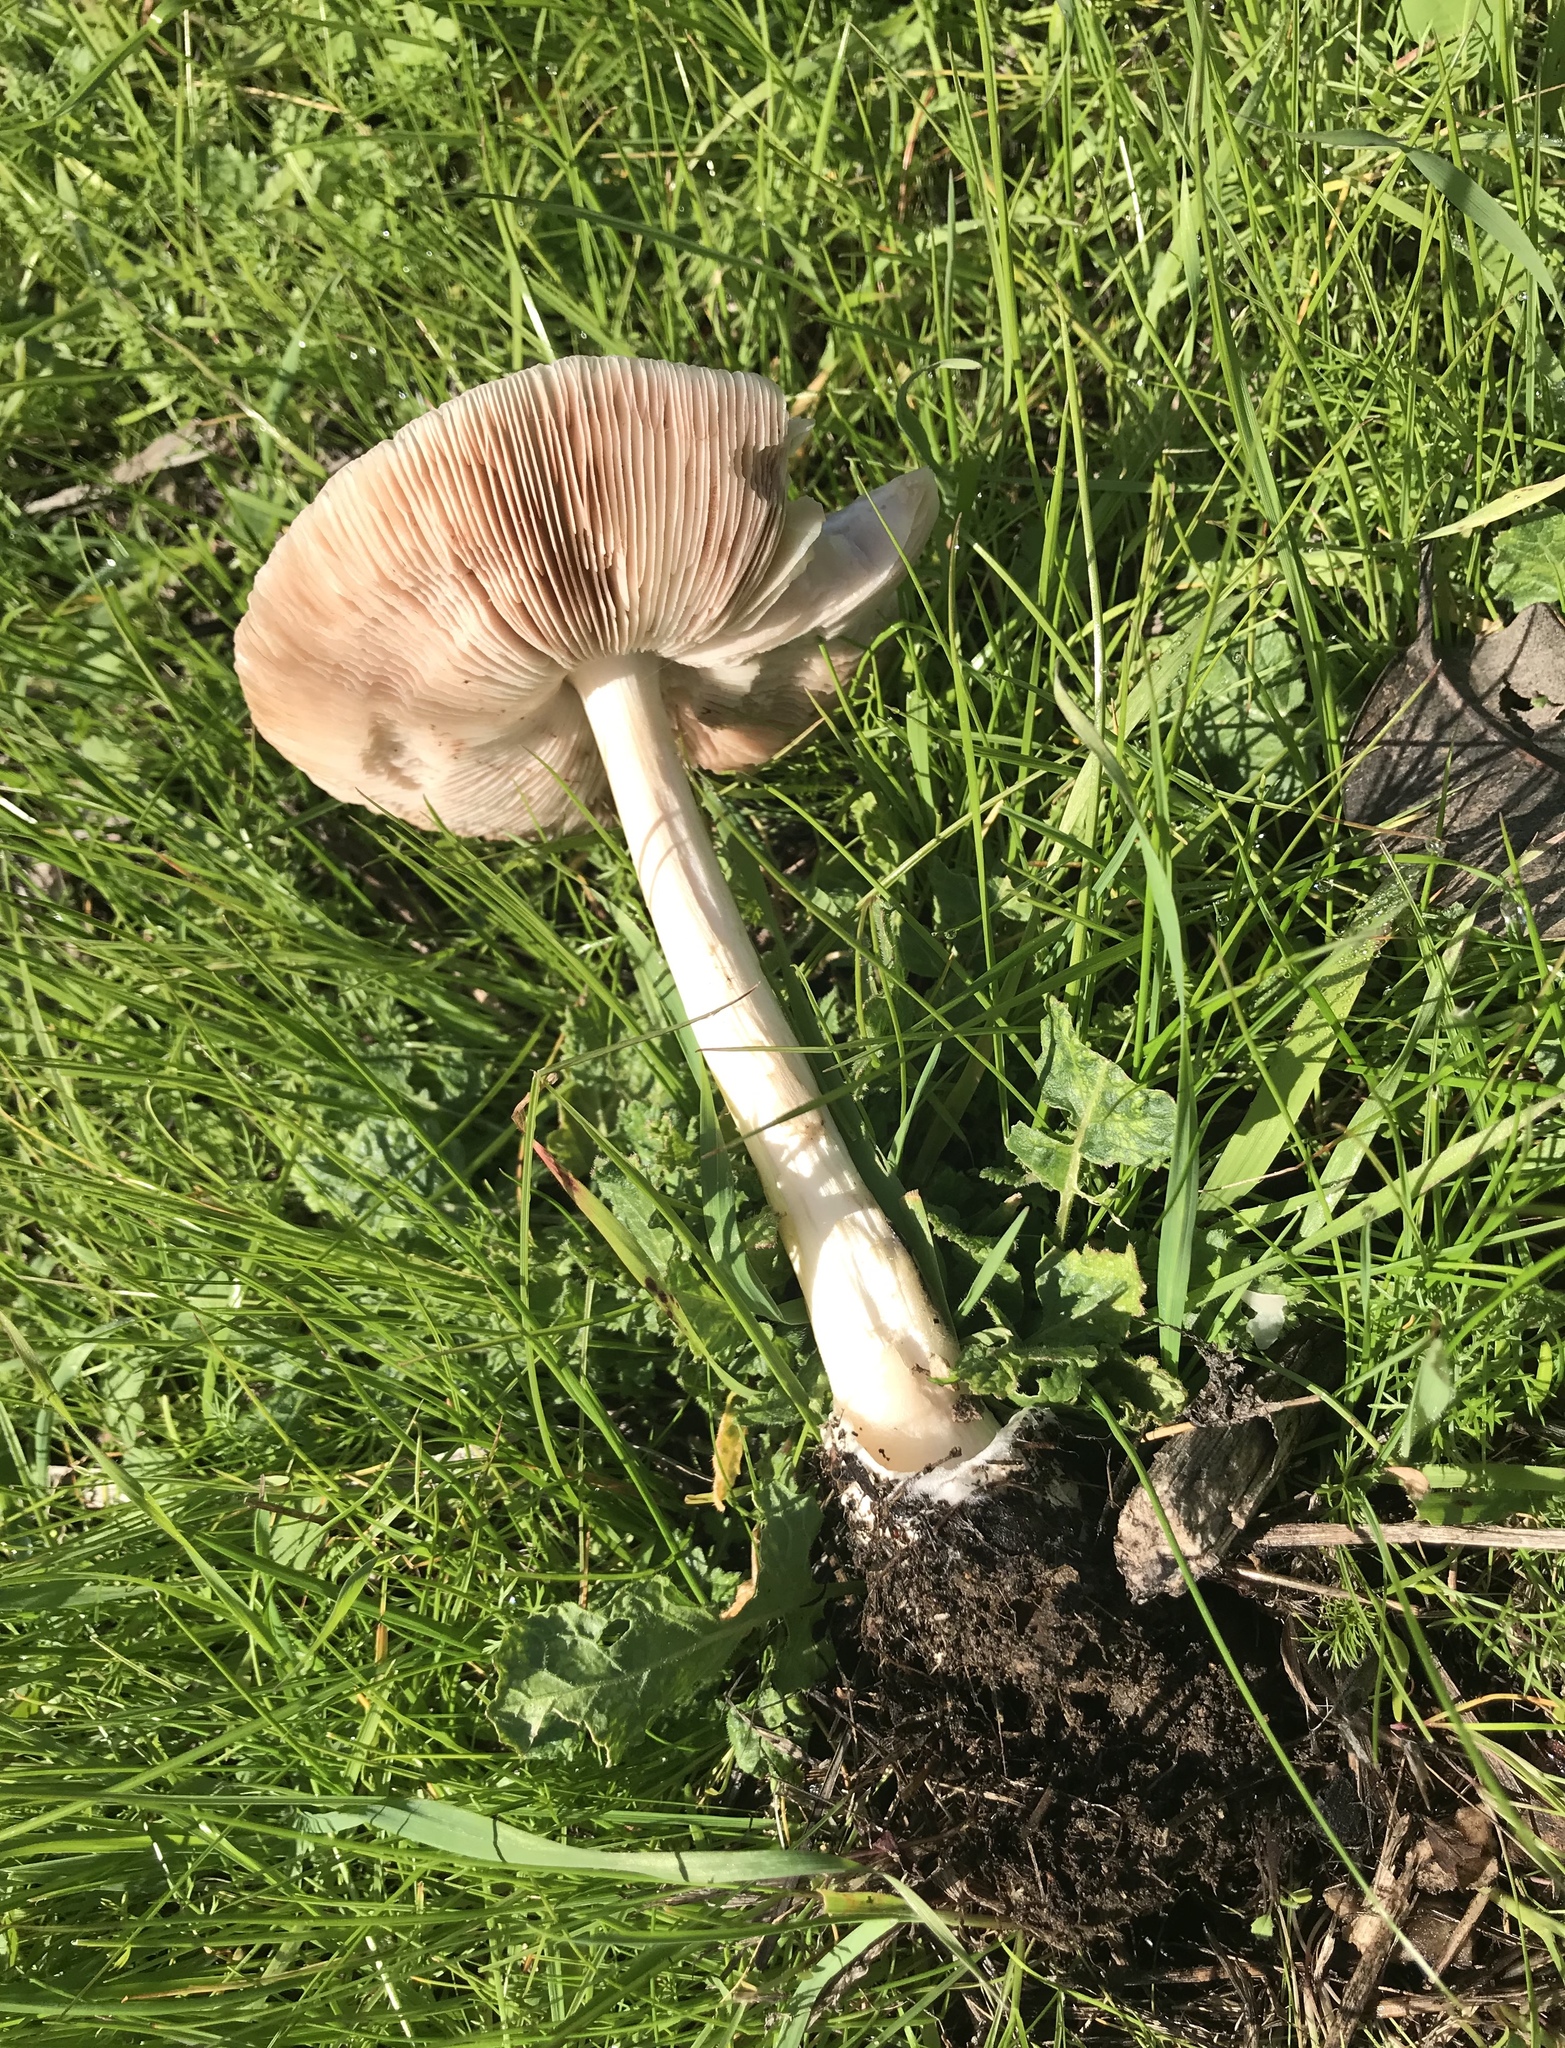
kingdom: Fungi
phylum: Basidiomycota
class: Agaricomycetes
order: Agaricales
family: Pluteaceae
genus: Volvopluteus
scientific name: Volvopluteus gloiocephalus
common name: Stubble rosegill
